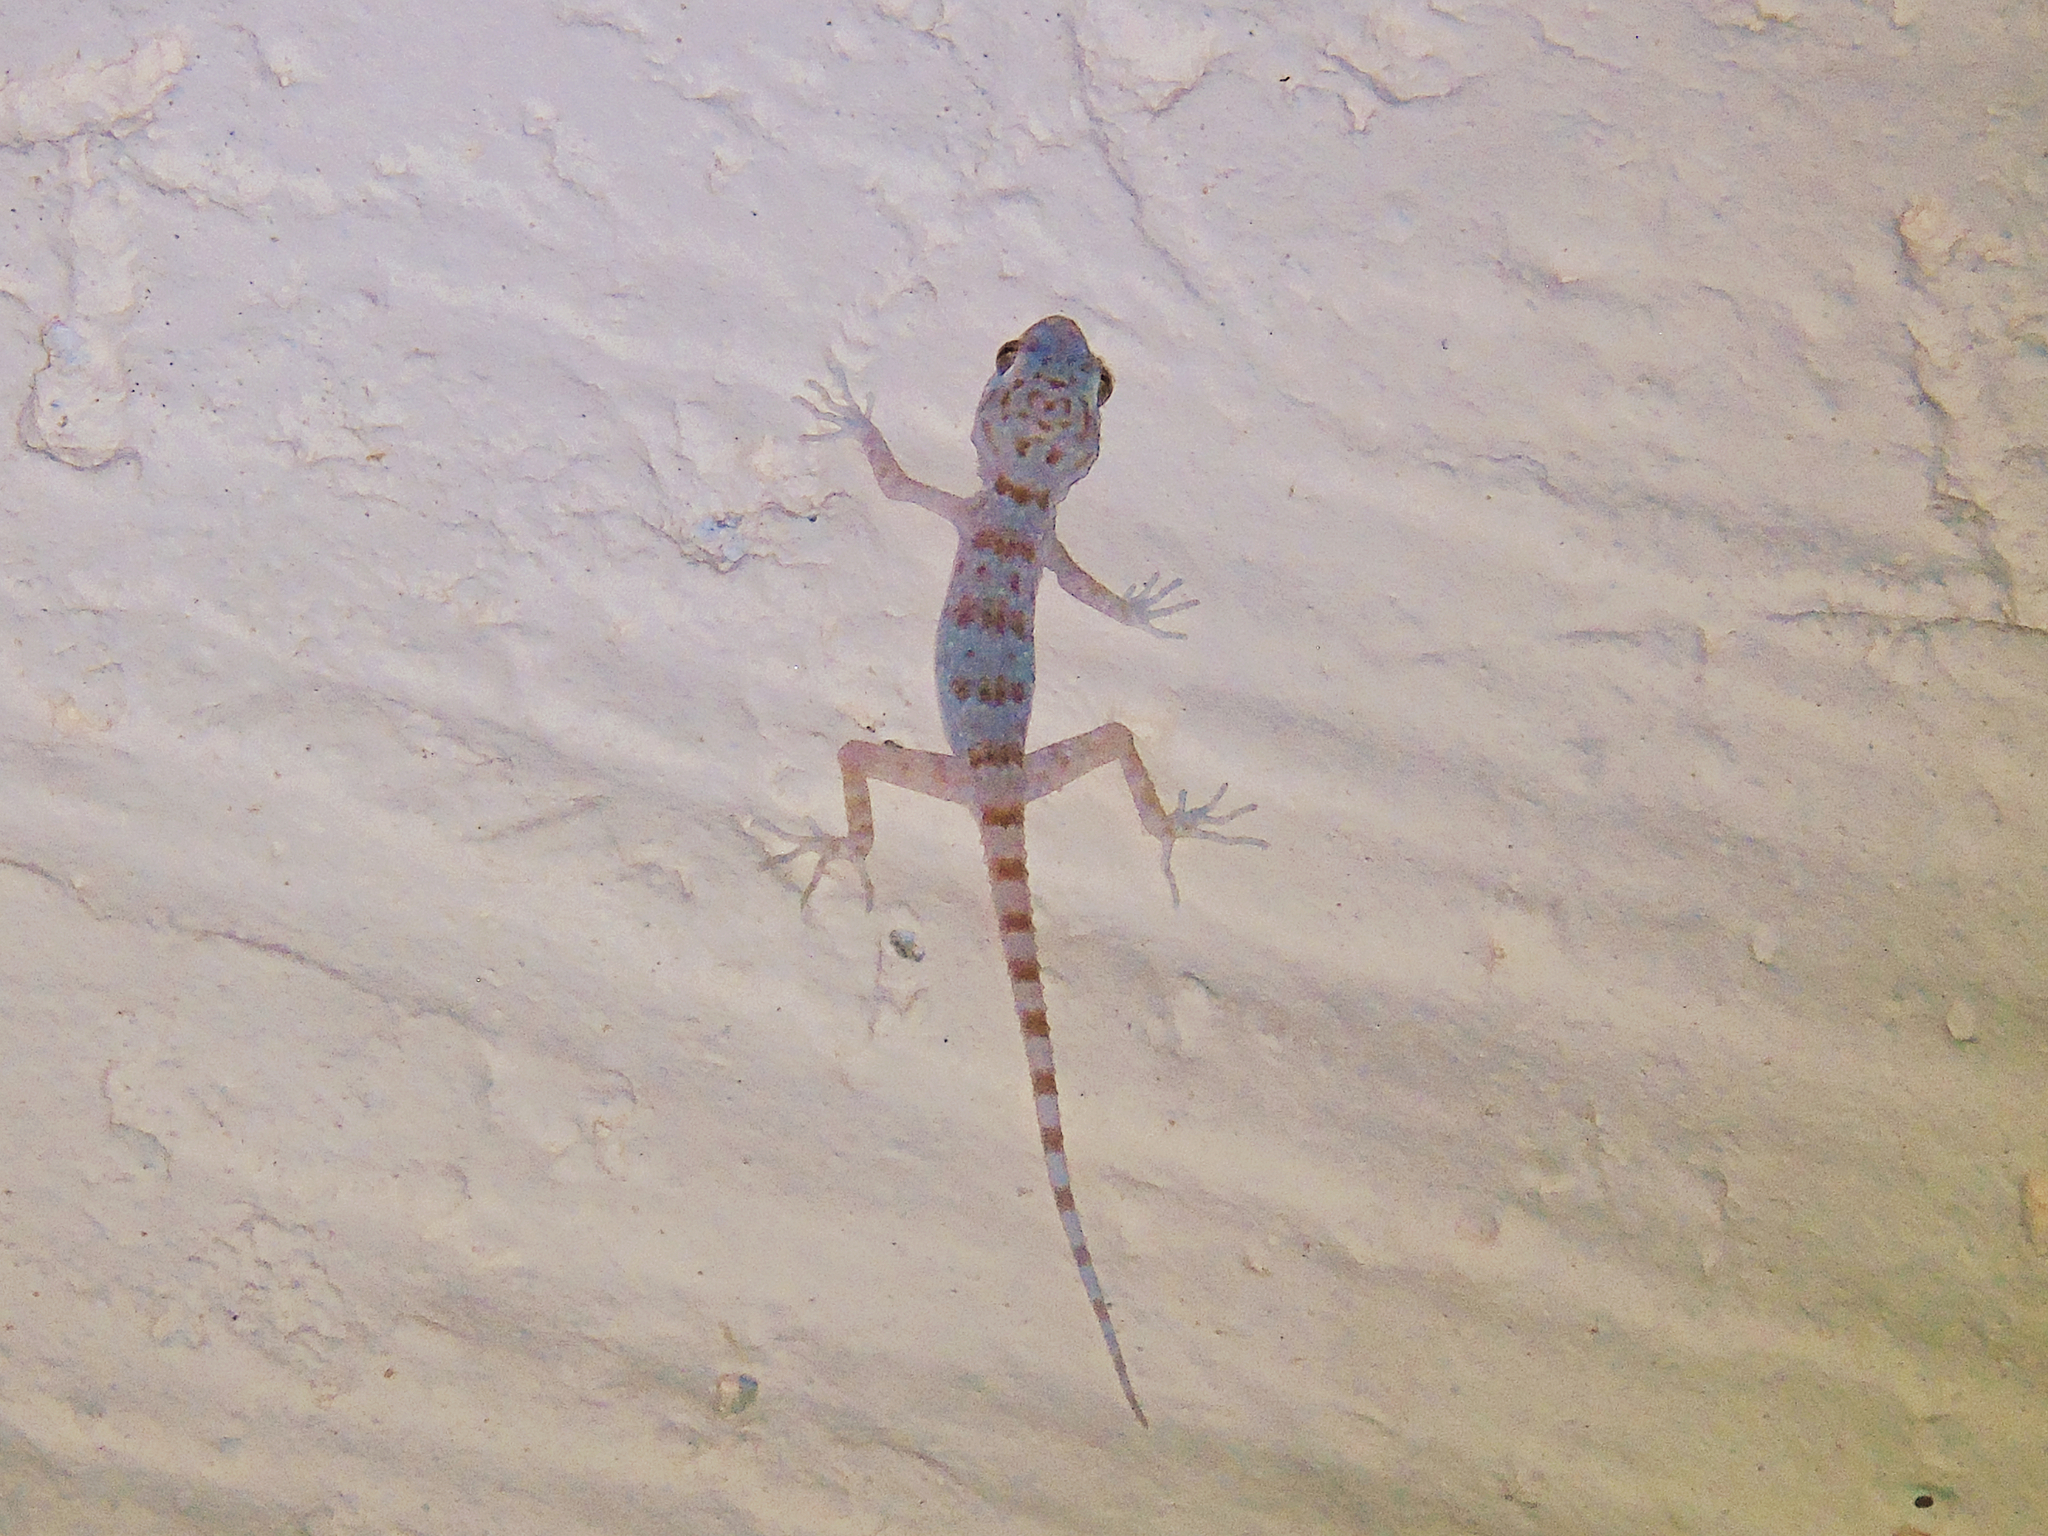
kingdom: Animalia
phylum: Chordata
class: Squamata
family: Gekkonidae
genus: Tenuidactylus
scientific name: Tenuidactylus bogdanovi
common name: Bogdanov’s thin-toed gecko
